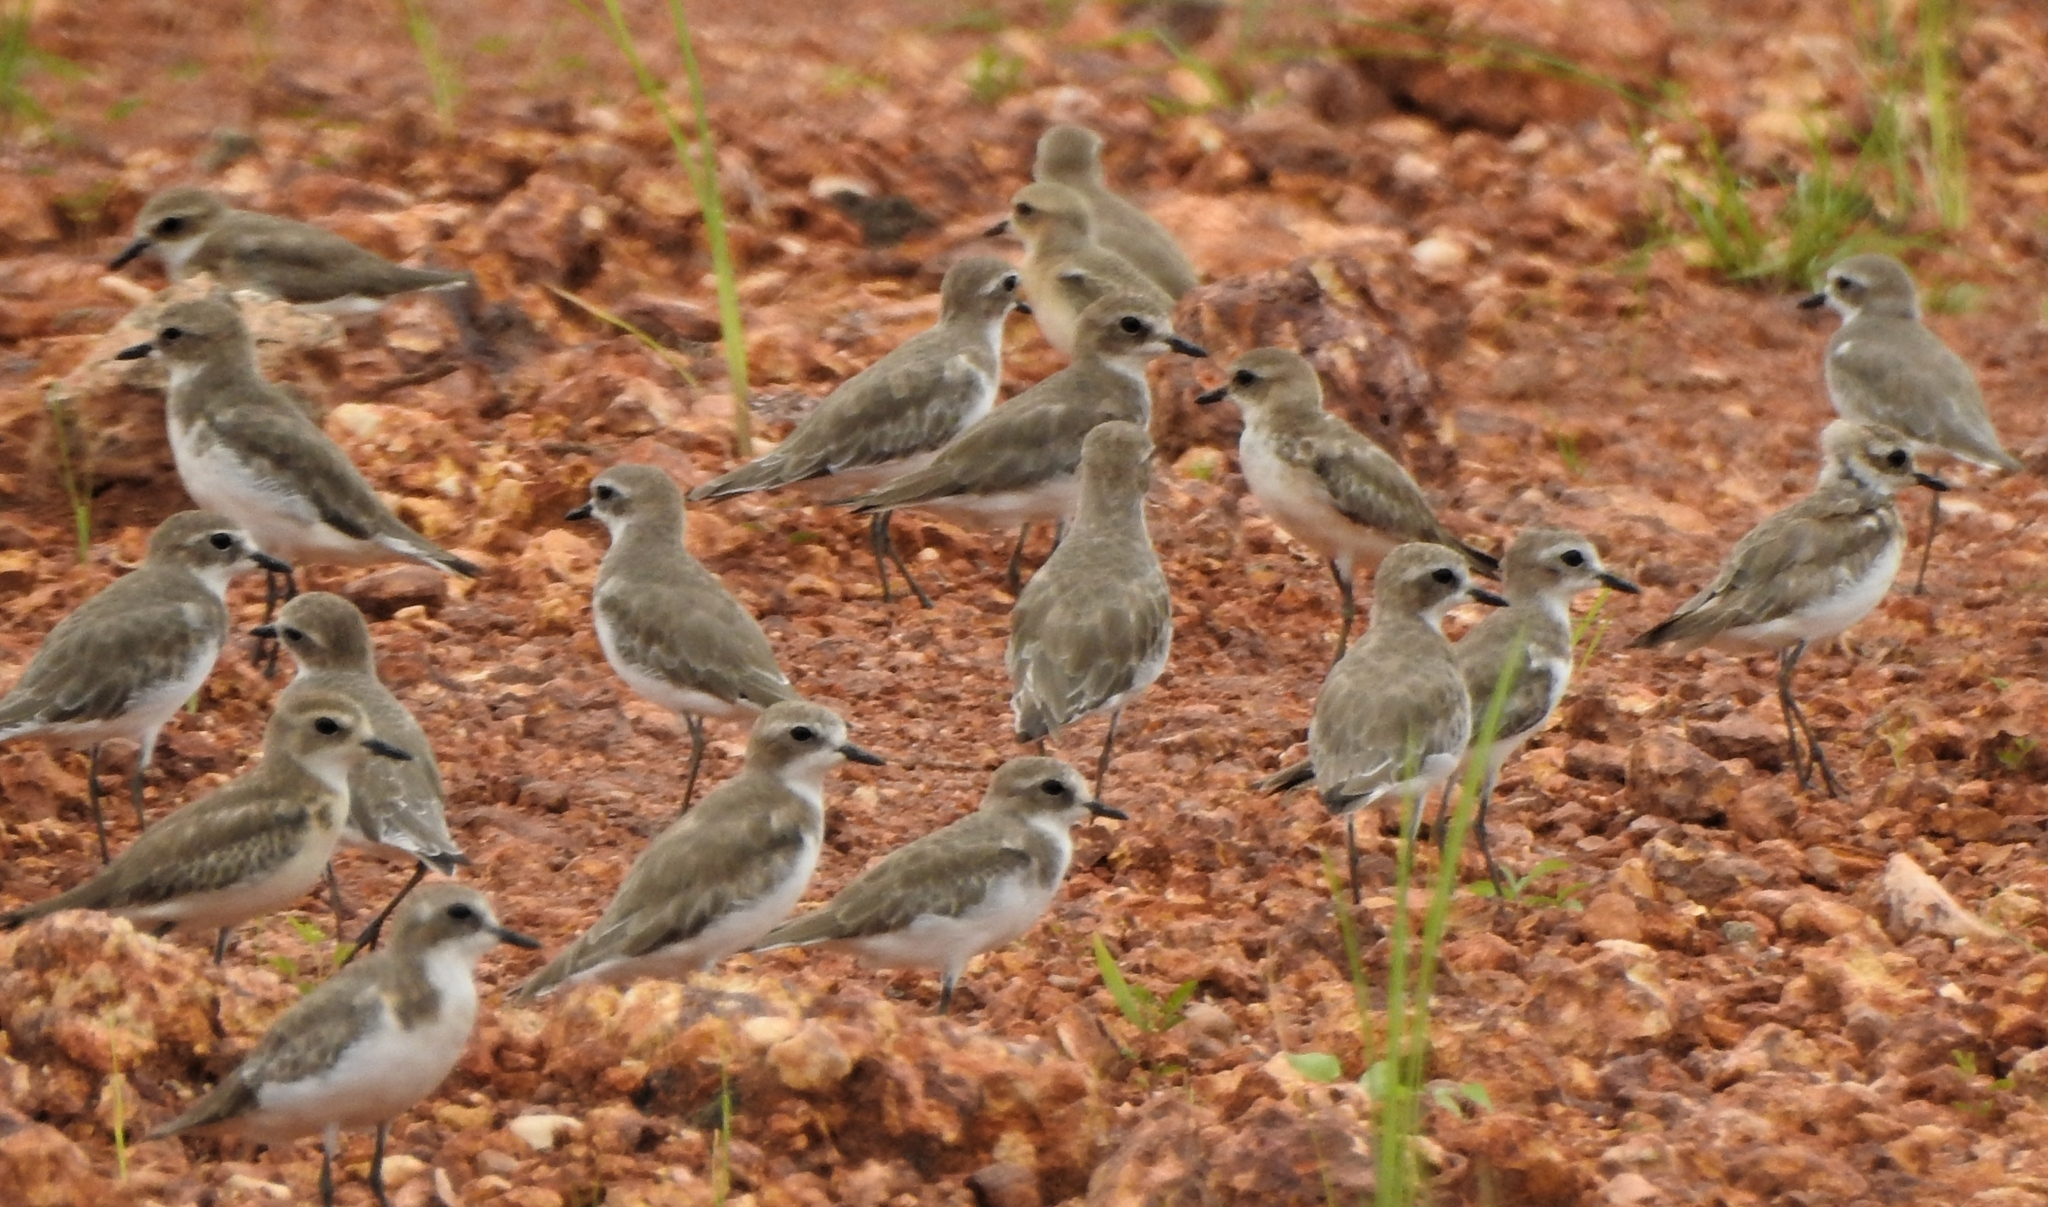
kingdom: Animalia
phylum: Chordata
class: Aves
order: Charadriiformes
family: Charadriidae
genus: Anarhynchus
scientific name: Anarhynchus
